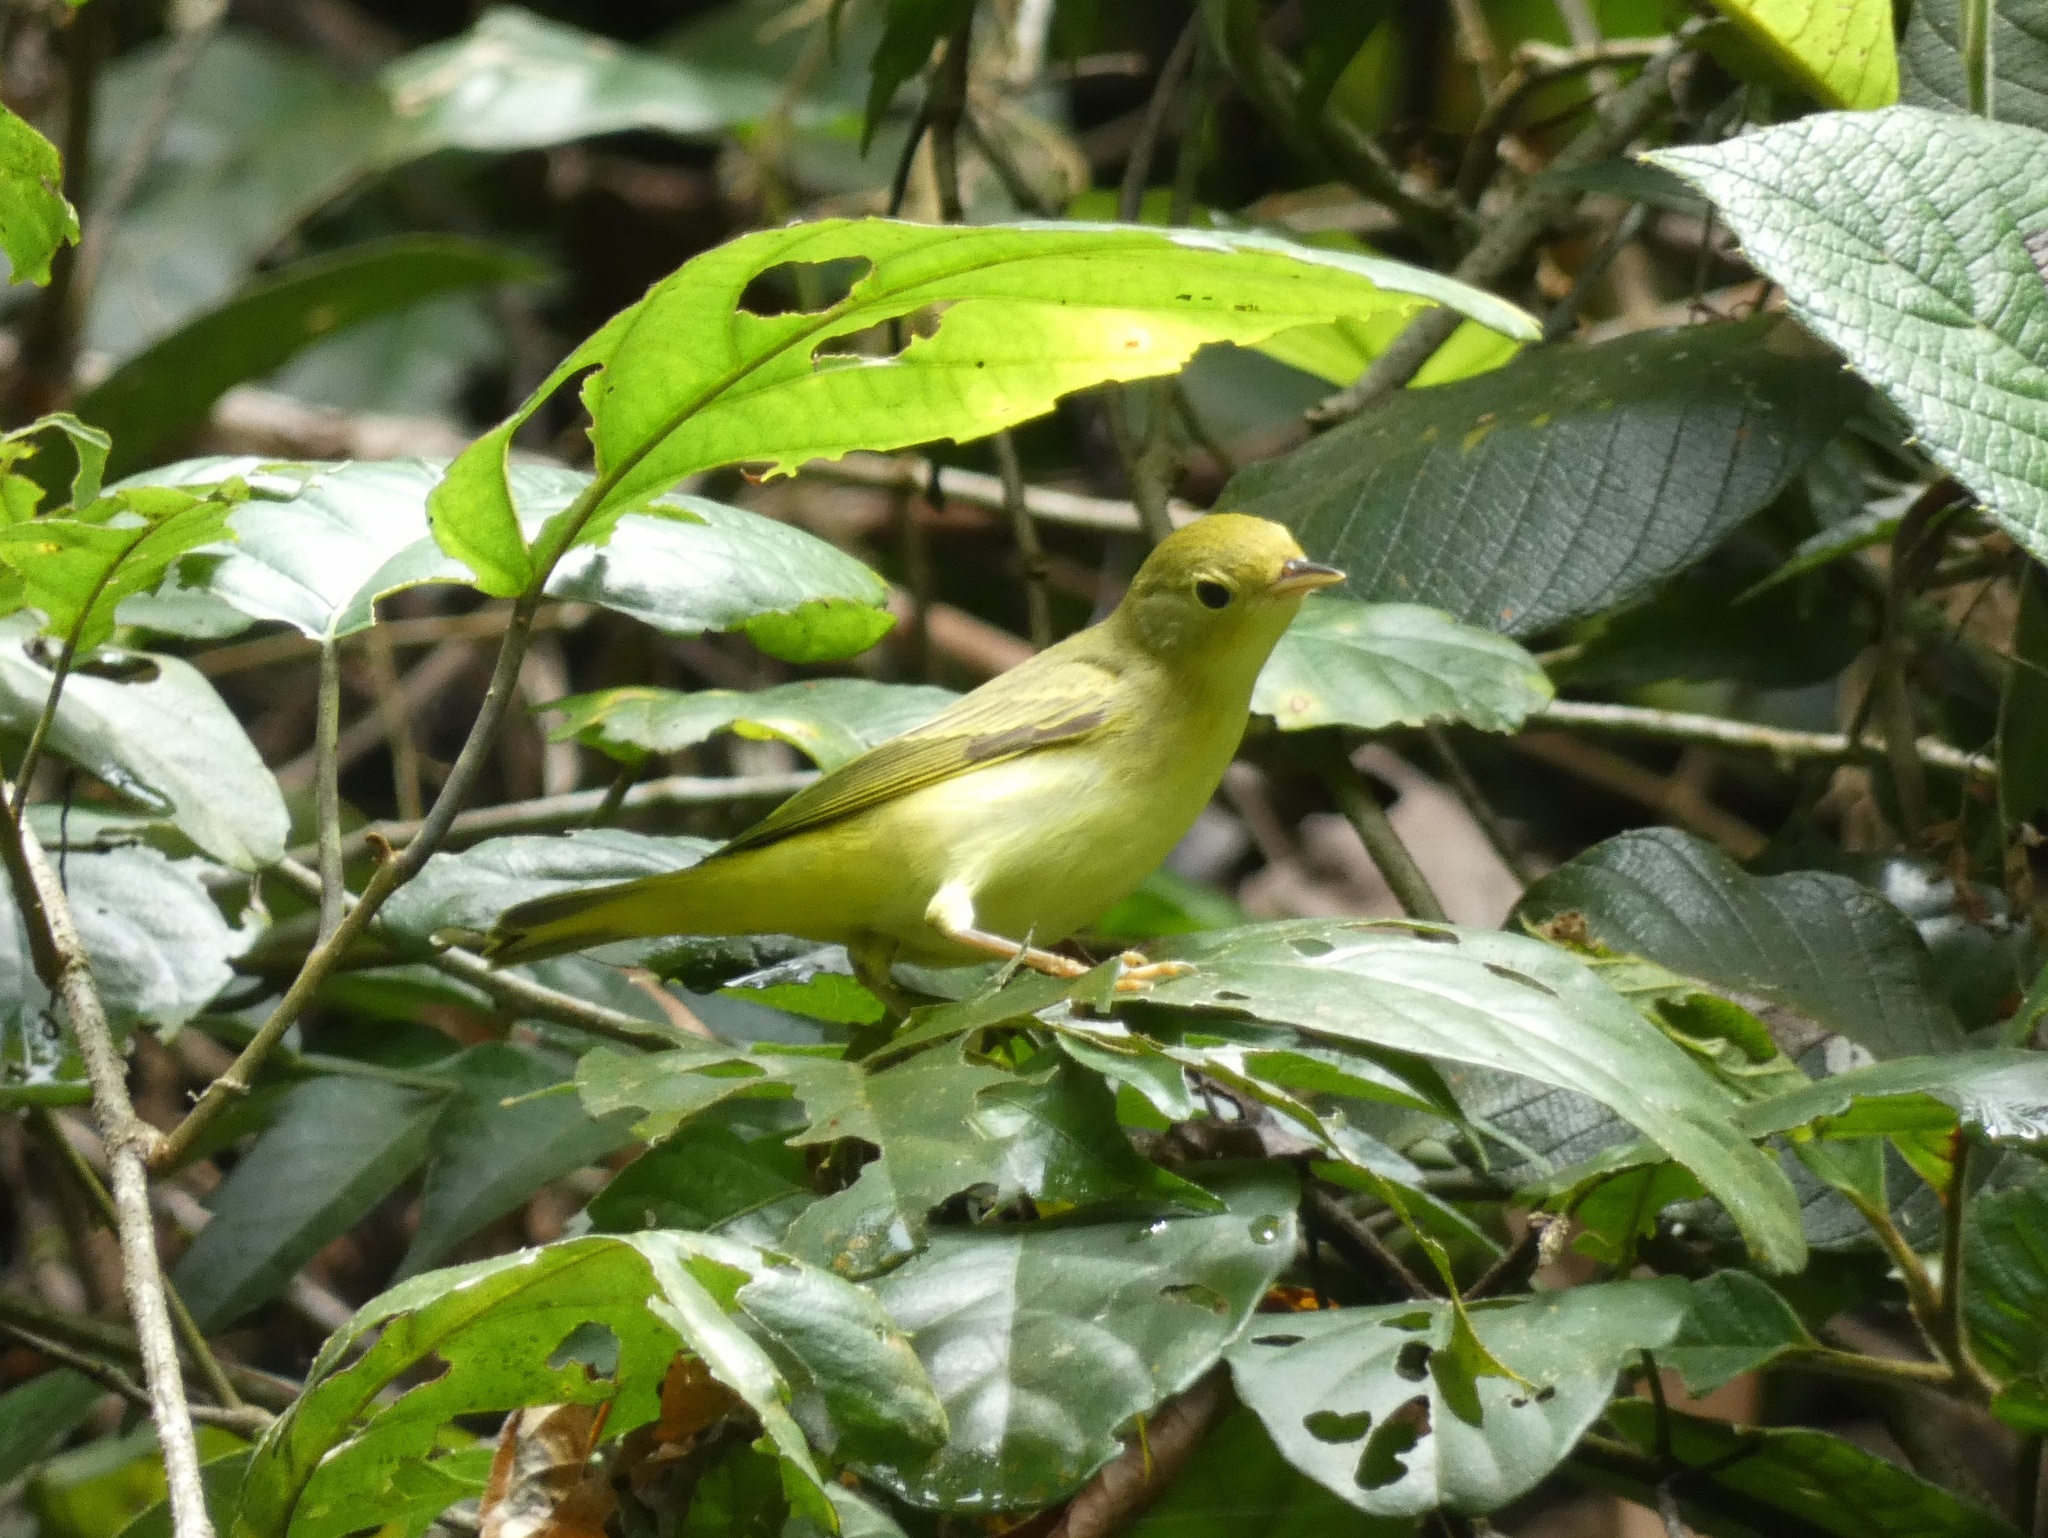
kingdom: Animalia
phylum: Chordata
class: Aves
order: Passeriformes
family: Parulidae
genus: Setophaga
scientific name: Setophaga petechia
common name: Yellow warbler
